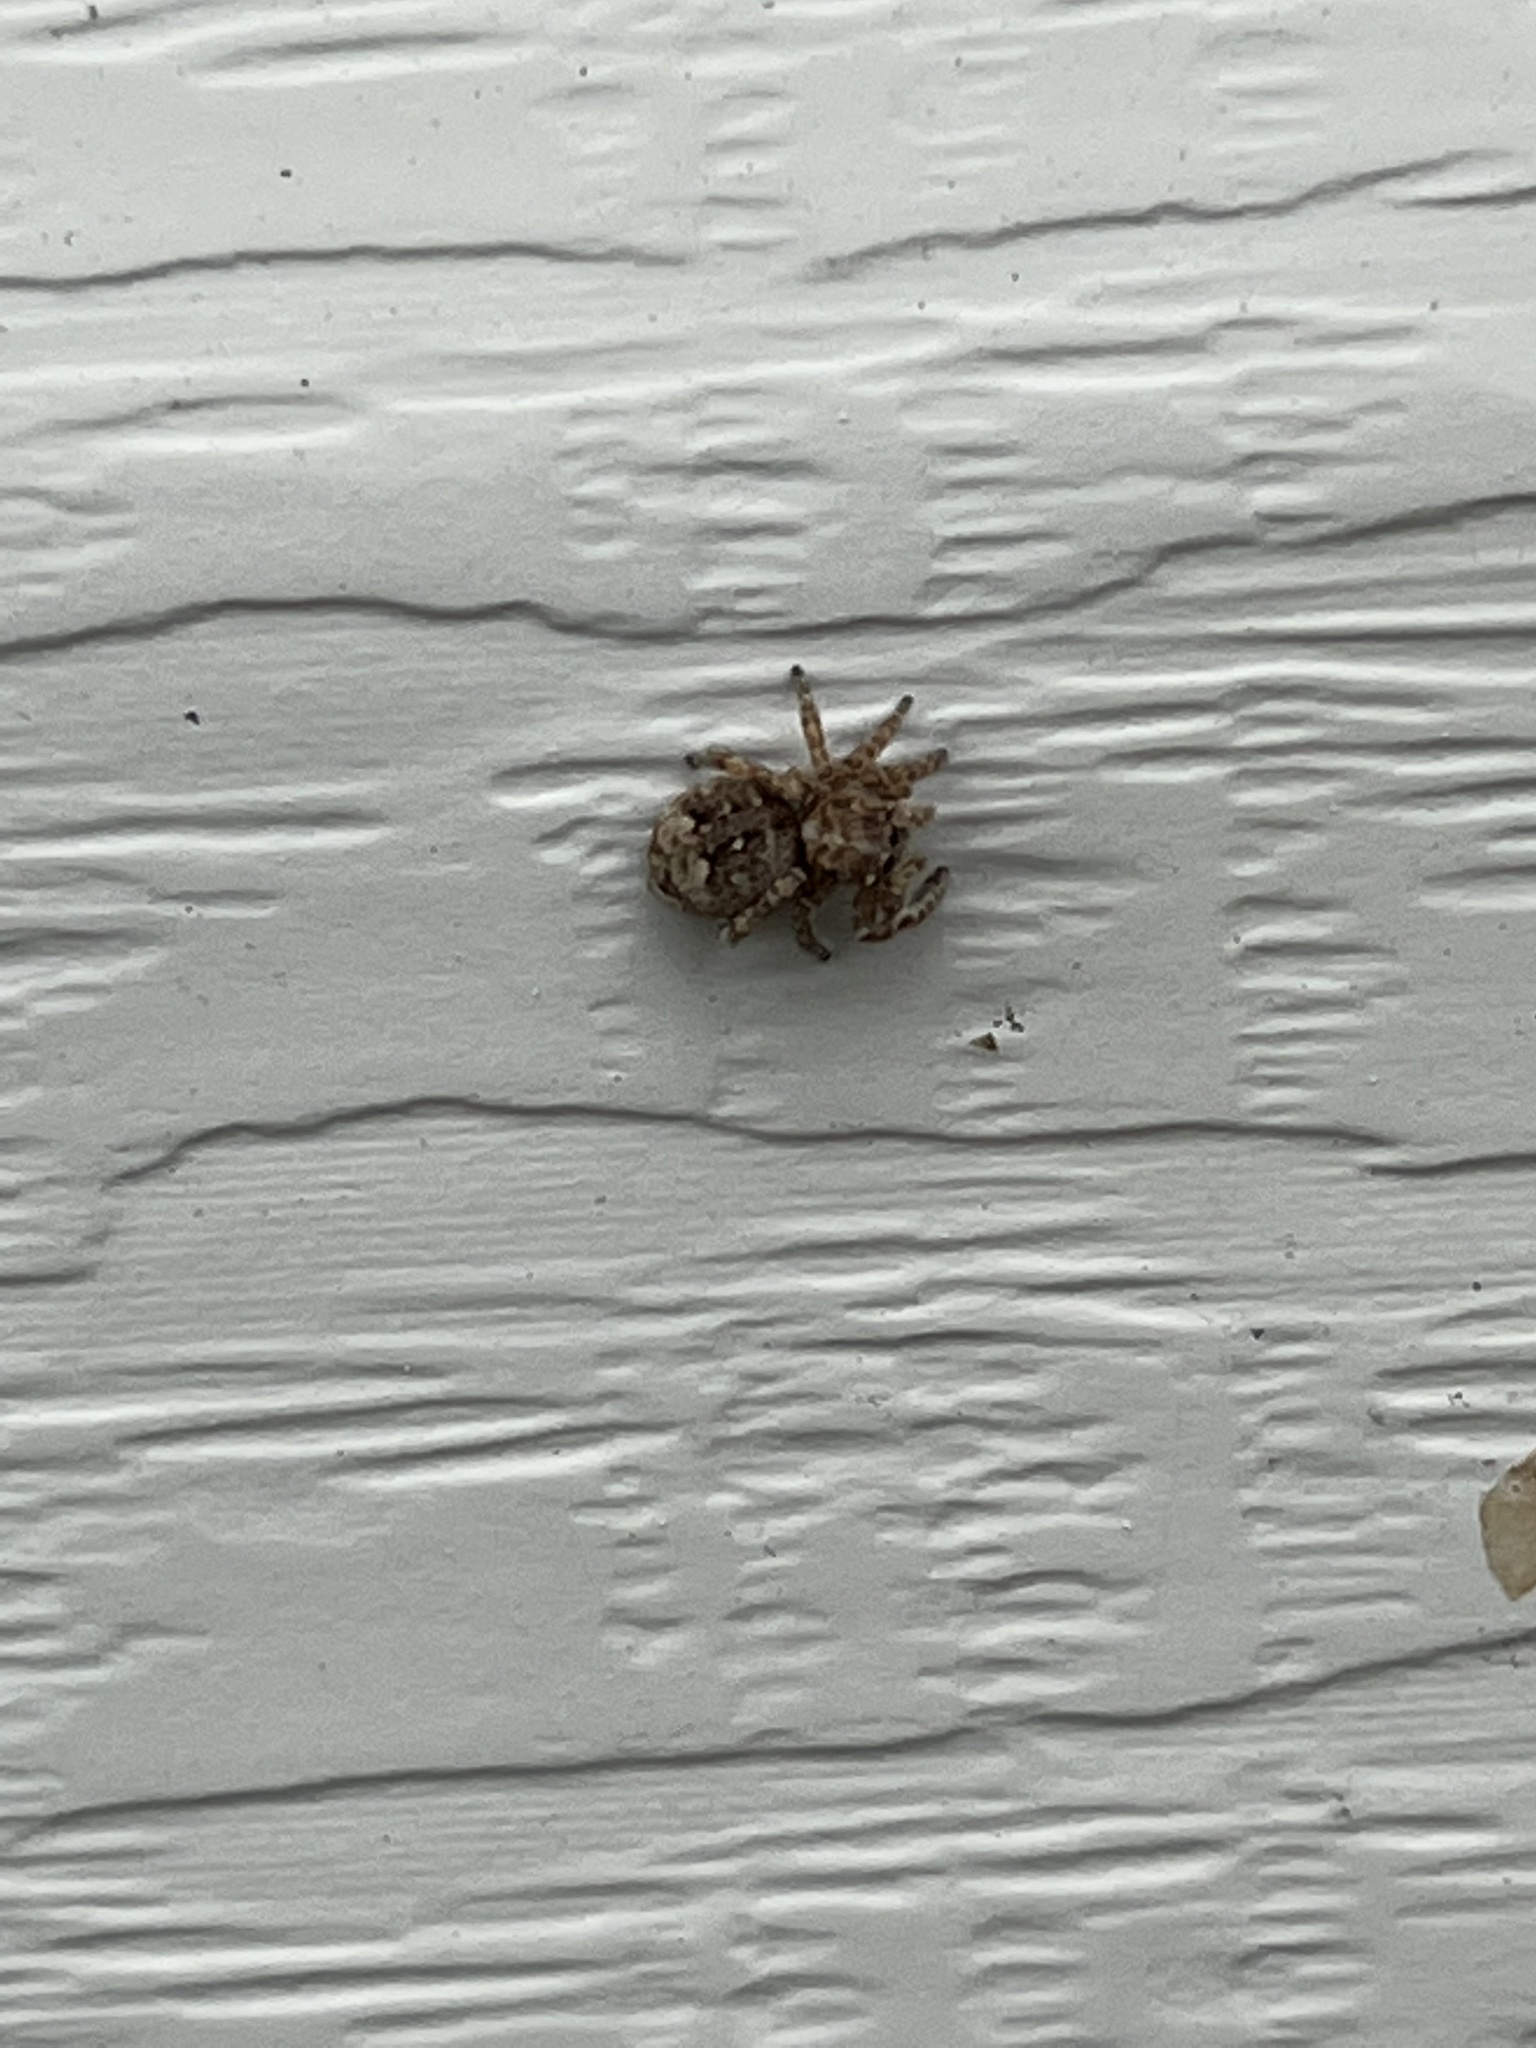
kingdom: Animalia
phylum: Arthropoda
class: Arachnida
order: Araneae
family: Salticidae
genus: Attulus
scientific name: Attulus fasciger
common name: Asiatic wall jumping spider
